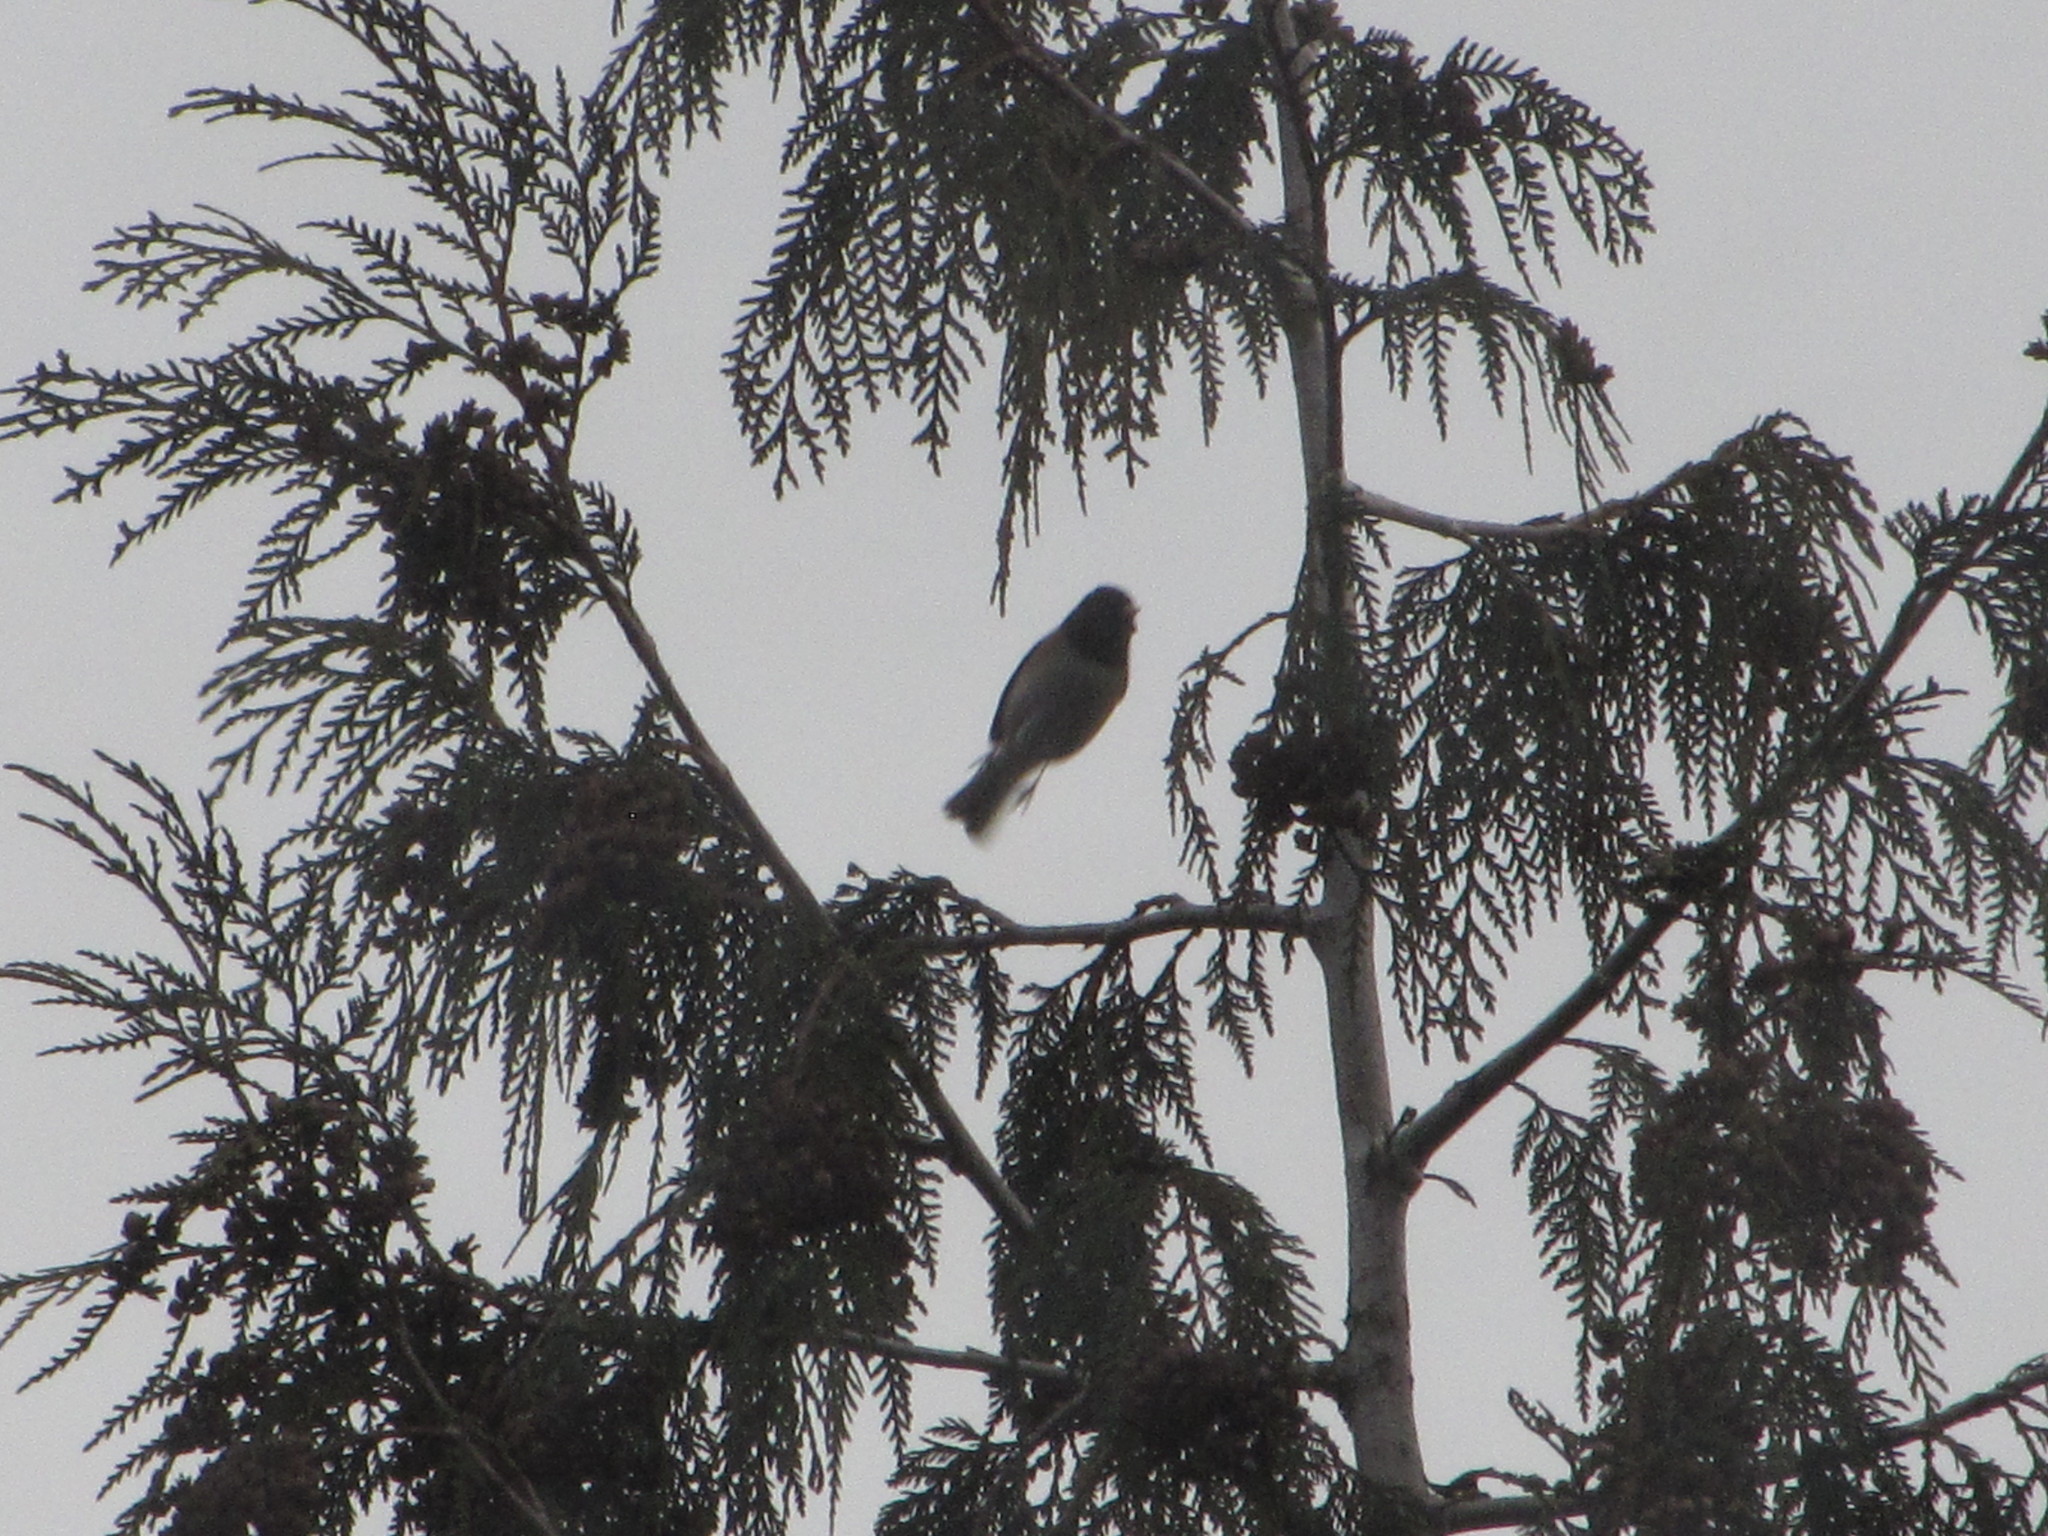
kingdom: Animalia
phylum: Chordata
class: Aves
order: Passeriformes
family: Passerellidae
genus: Junco
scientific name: Junco hyemalis
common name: Dark-eyed junco
